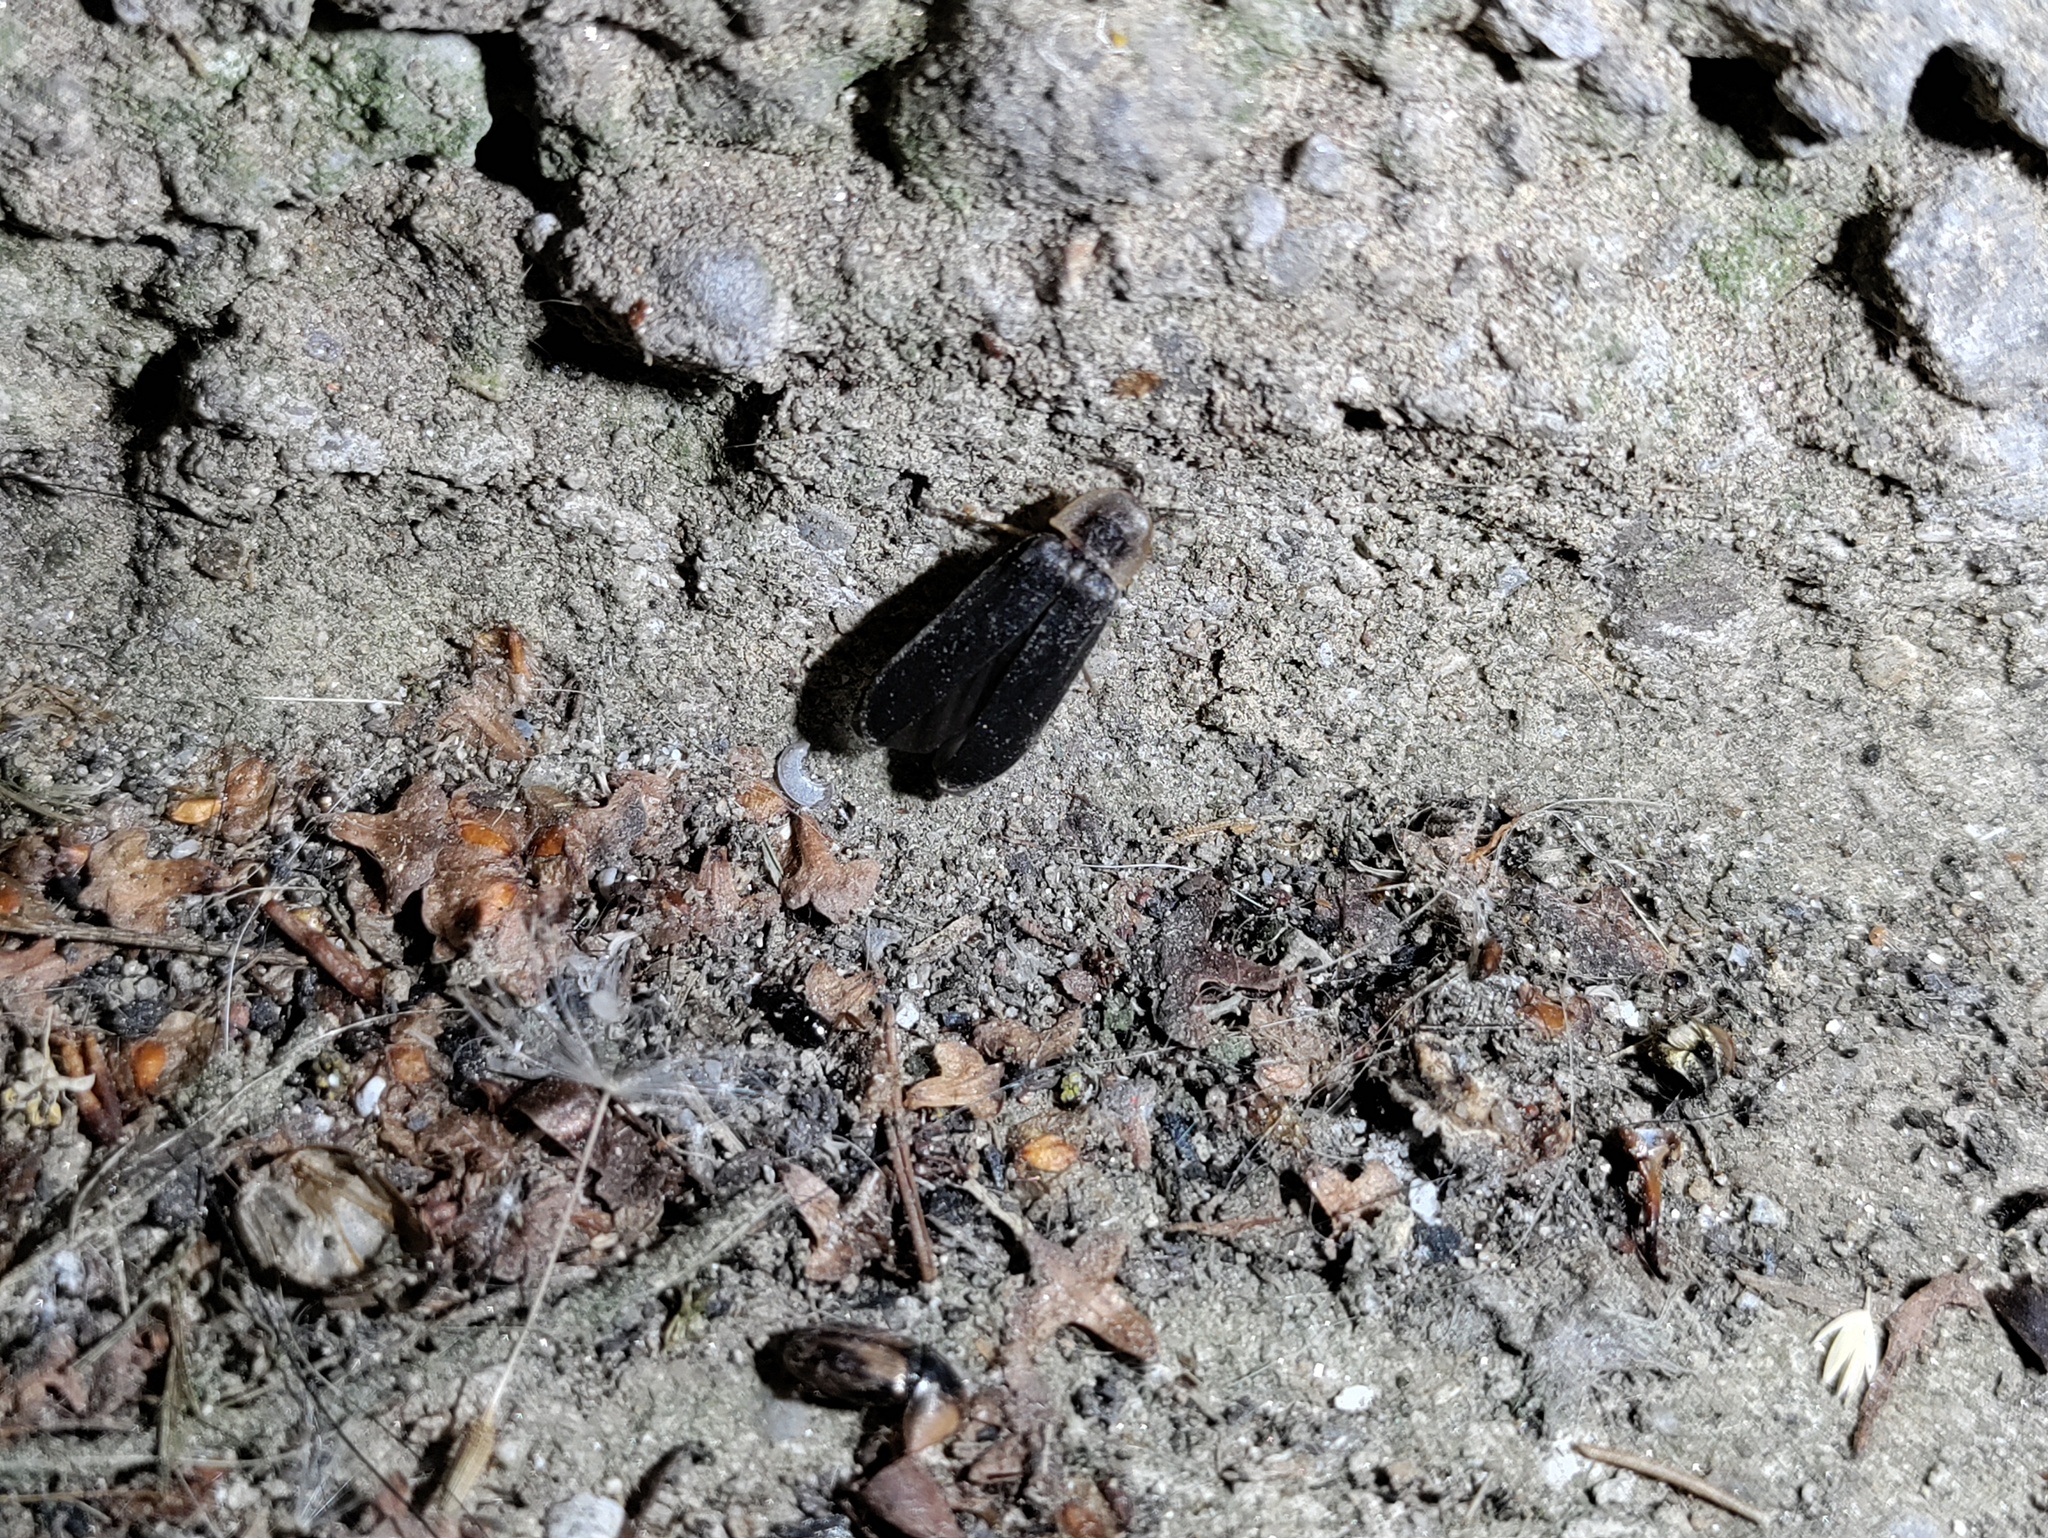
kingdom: Animalia
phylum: Arthropoda
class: Insecta
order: Coleoptera
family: Lampyridae
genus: Lampyris
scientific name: Lampyris noctiluca
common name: Glow-worm
